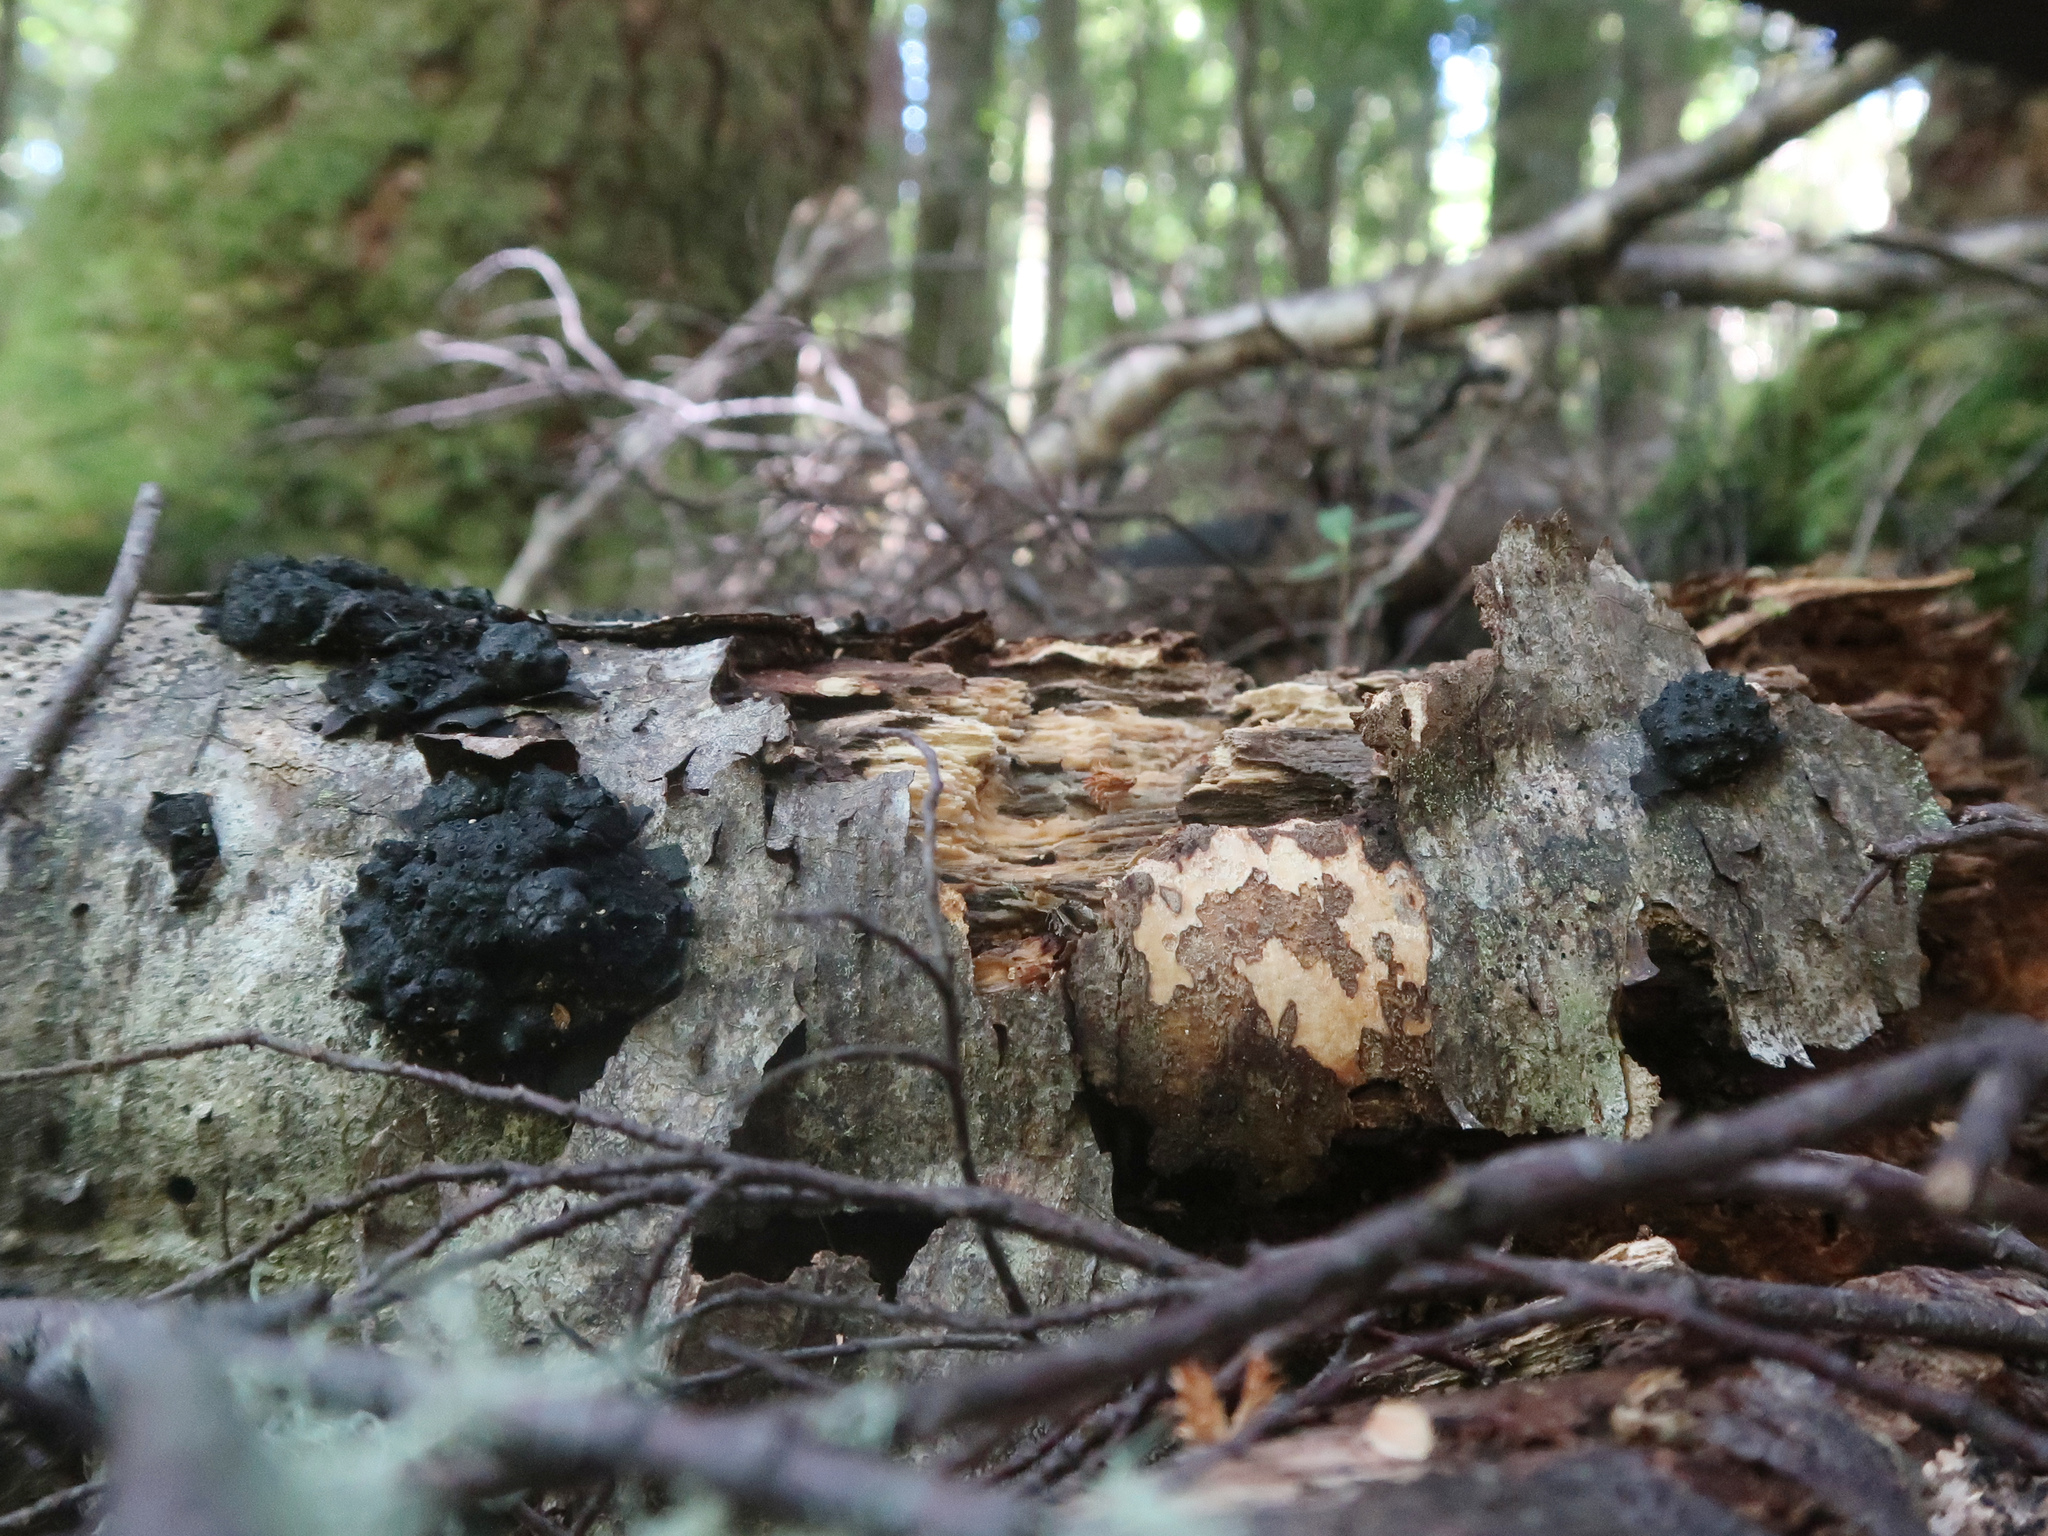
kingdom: Fungi
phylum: Ascomycota
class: Sordariomycetes
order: Xylariales
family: Hypoxylaceae
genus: Annulohypoxylon
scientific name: Annulohypoxylon hians
